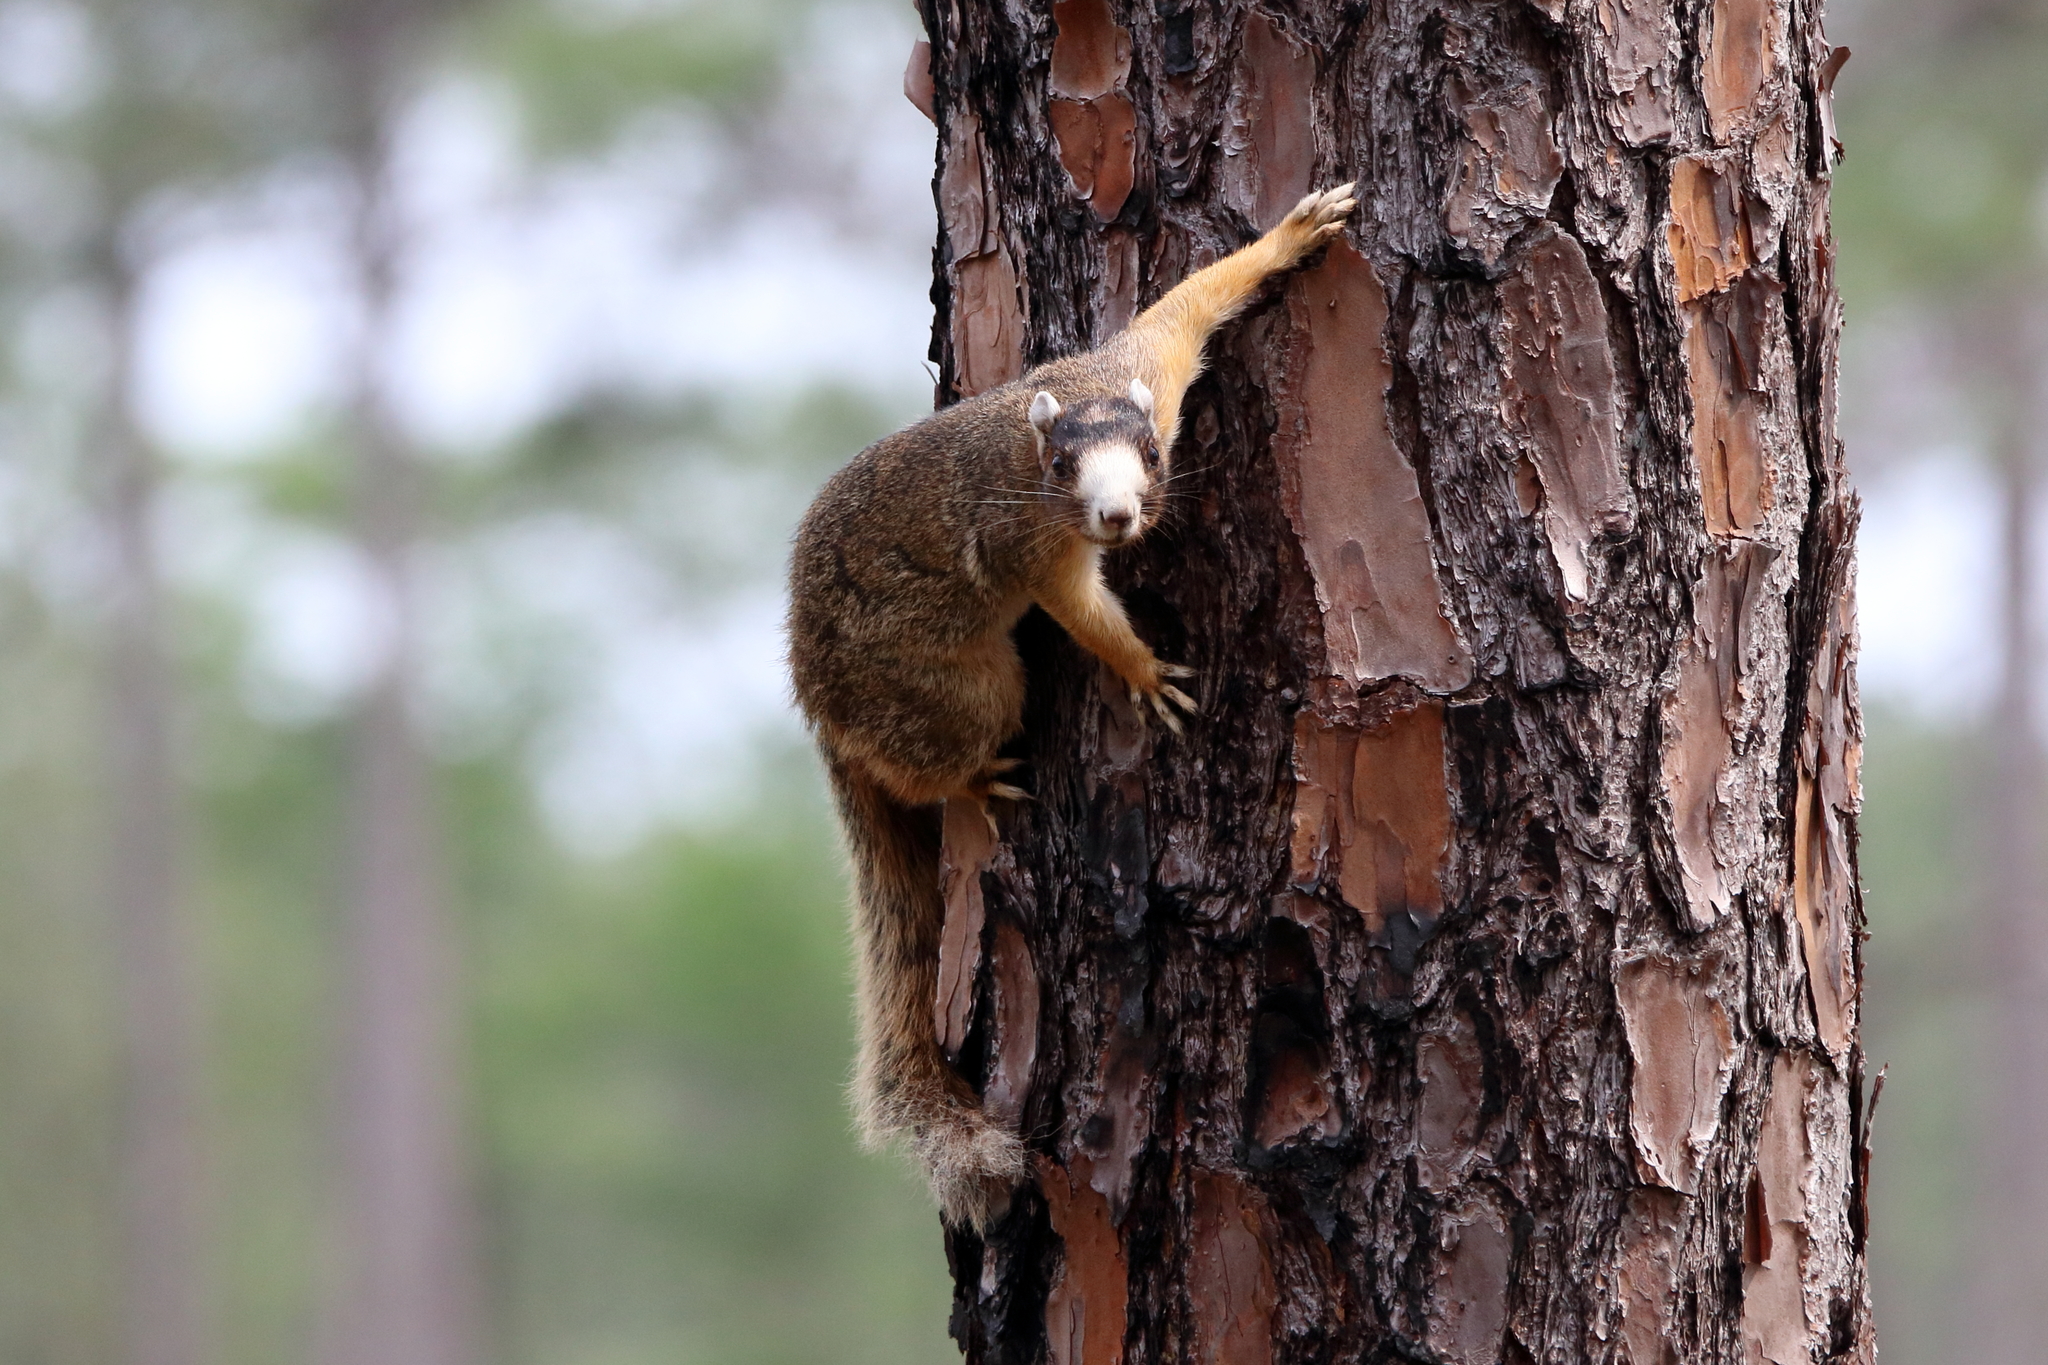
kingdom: Animalia
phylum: Chordata
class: Mammalia
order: Rodentia
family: Sciuridae
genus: Sciurus
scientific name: Sciurus niger
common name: Fox squirrel
